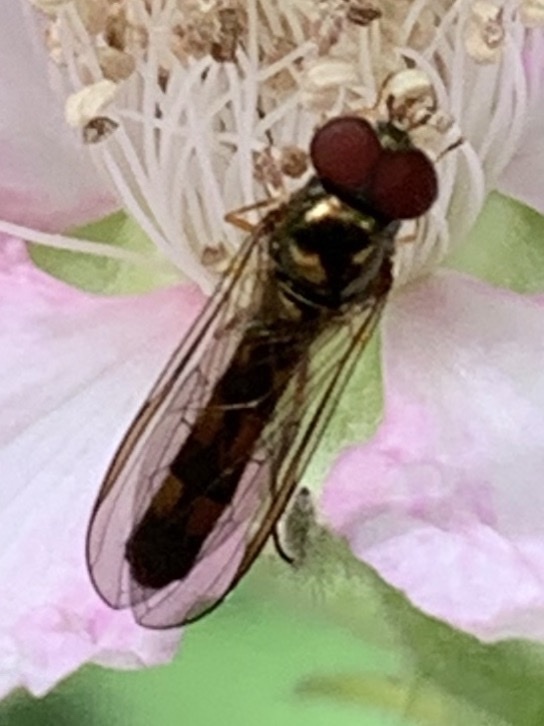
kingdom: Animalia
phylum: Arthropoda
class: Insecta
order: Diptera
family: Syrphidae
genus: Melanostoma
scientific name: Melanostoma mellina
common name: Hover fly
